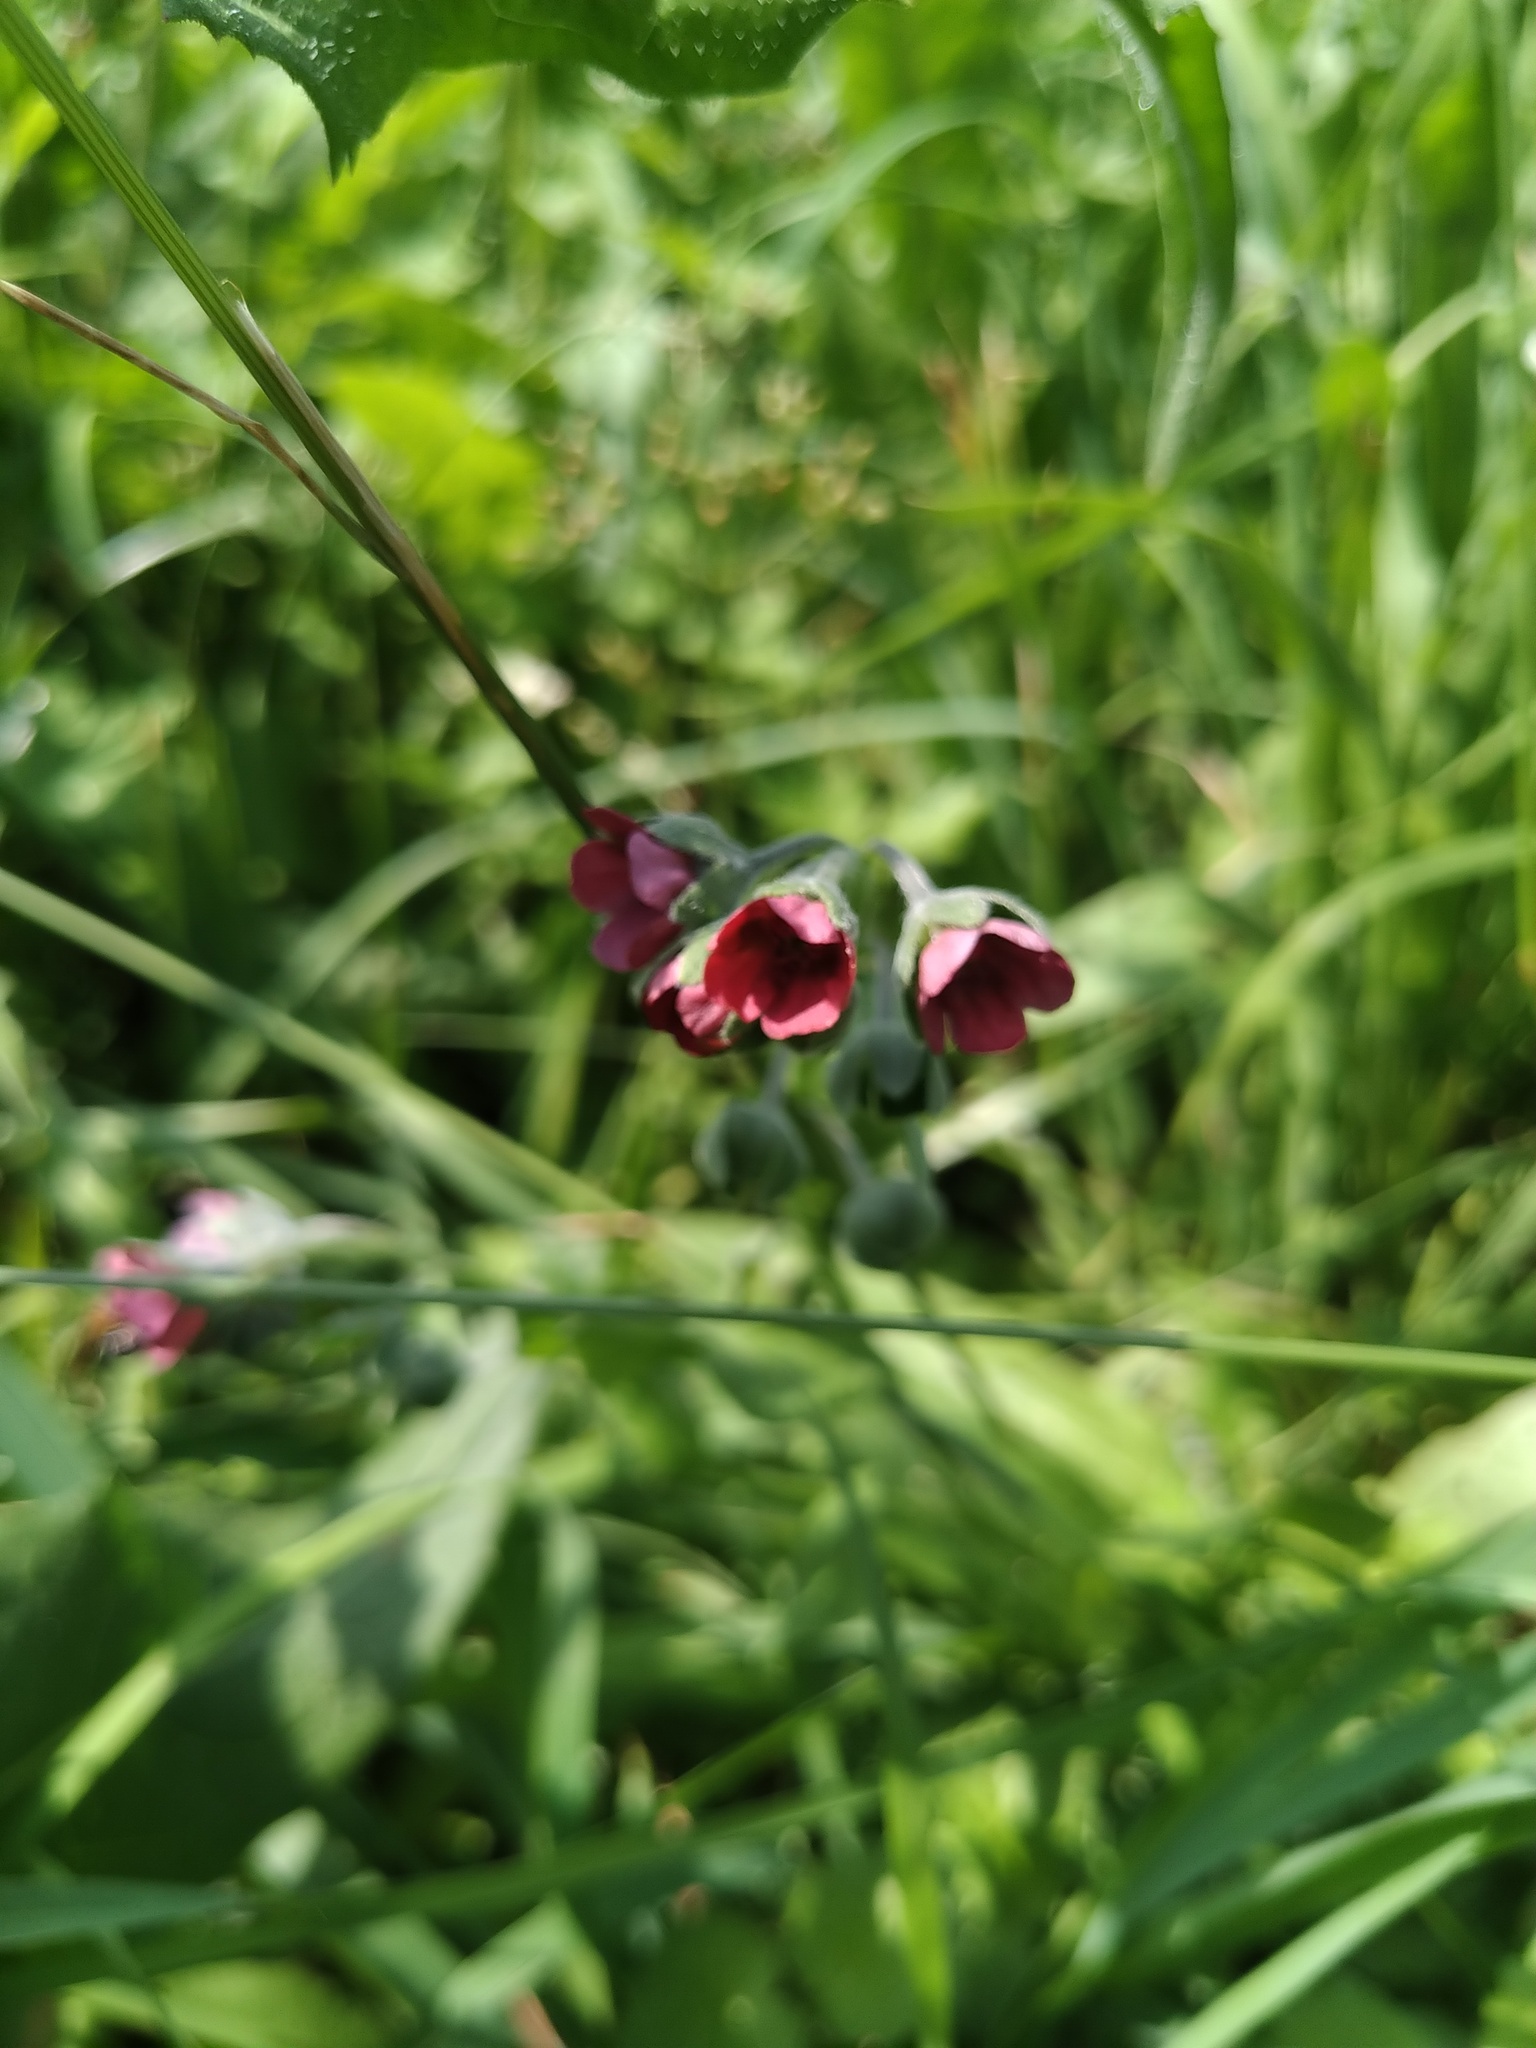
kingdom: Plantae
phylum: Tracheophyta
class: Magnoliopsida
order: Boraginales
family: Boraginaceae
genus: Cynoglossum
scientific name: Cynoglossum officinale
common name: Hound's-tongue
